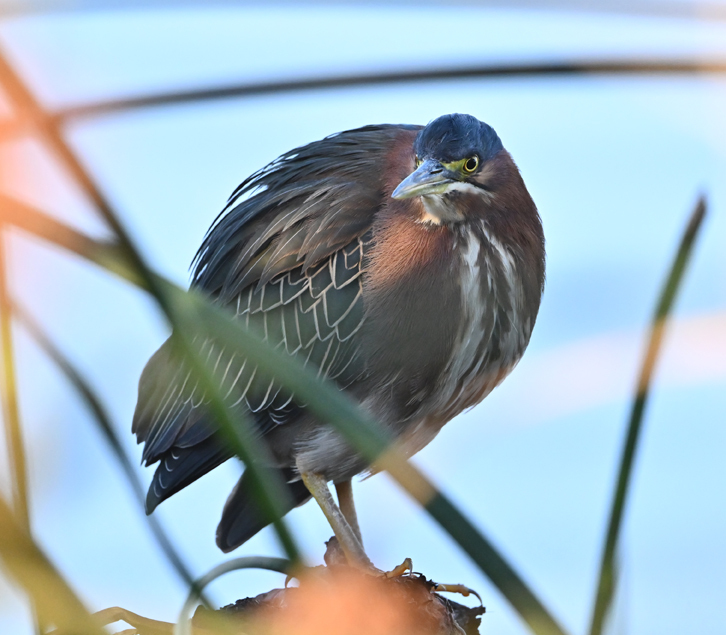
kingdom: Animalia
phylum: Chordata
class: Aves
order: Pelecaniformes
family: Ardeidae
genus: Butorides
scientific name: Butorides virescens
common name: Green heron
